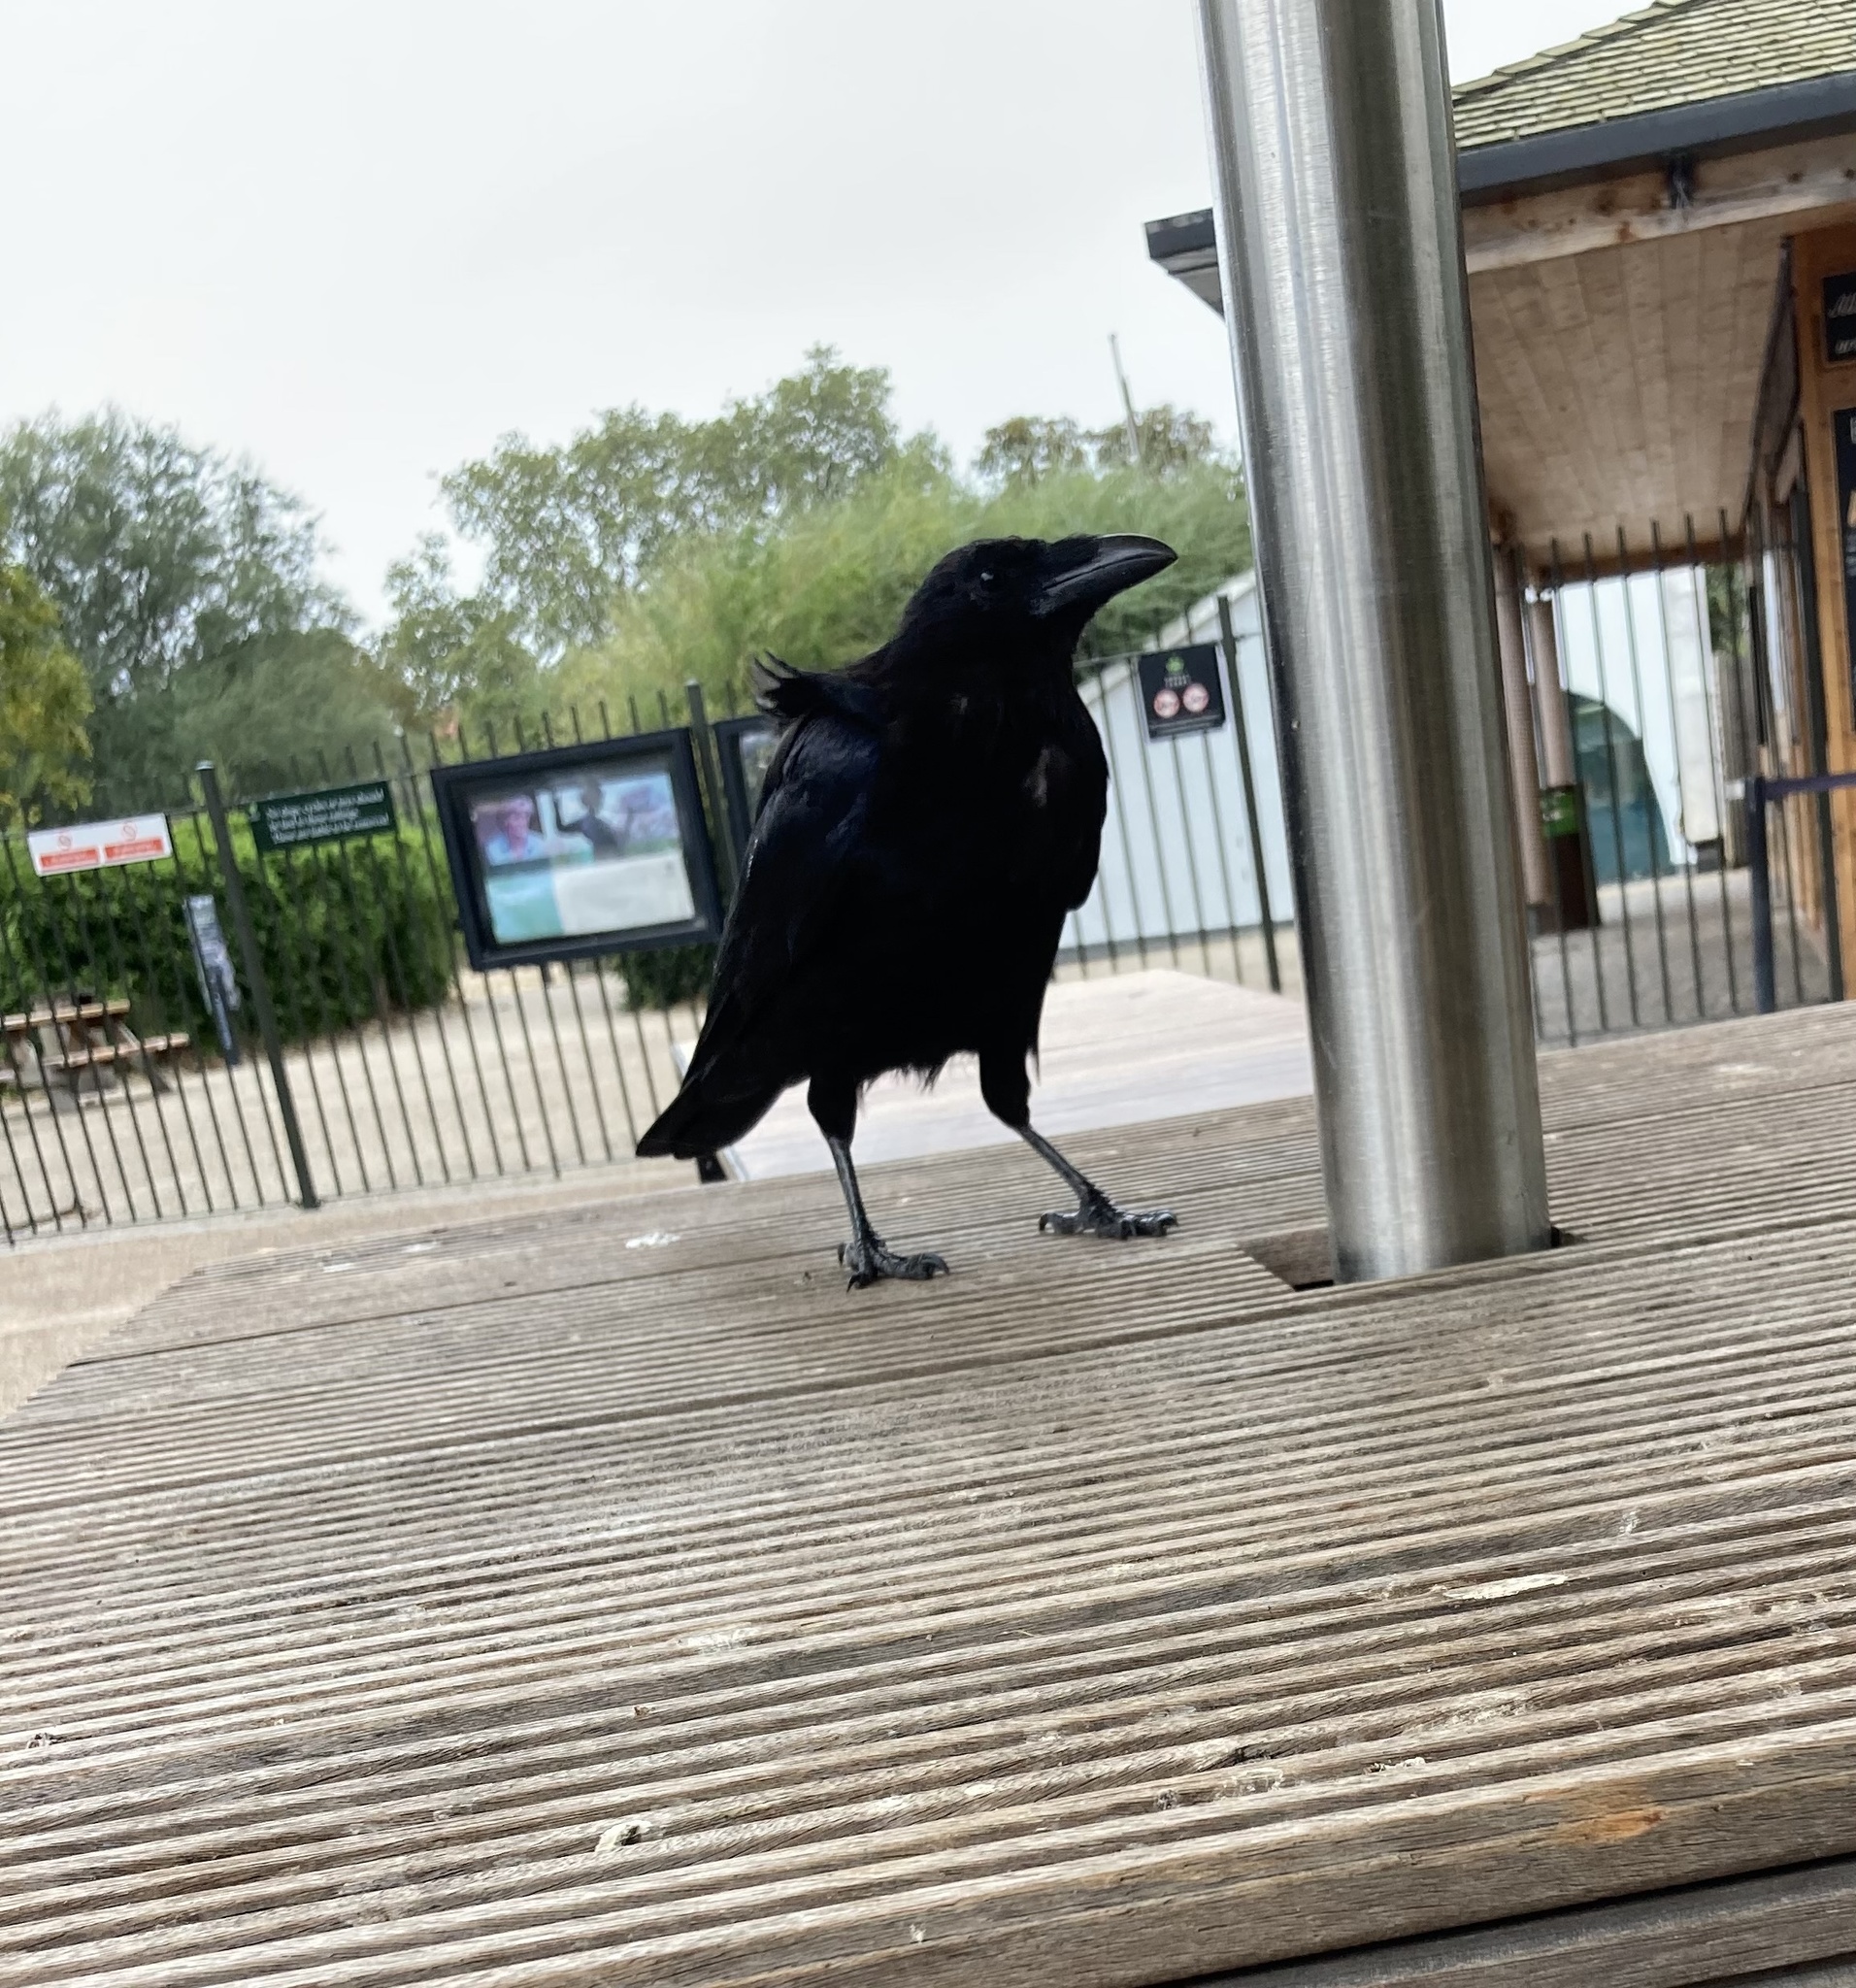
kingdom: Animalia
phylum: Chordata
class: Aves
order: Passeriformes
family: Corvidae
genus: Corvus
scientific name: Corvus corone
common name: Carrion crow
